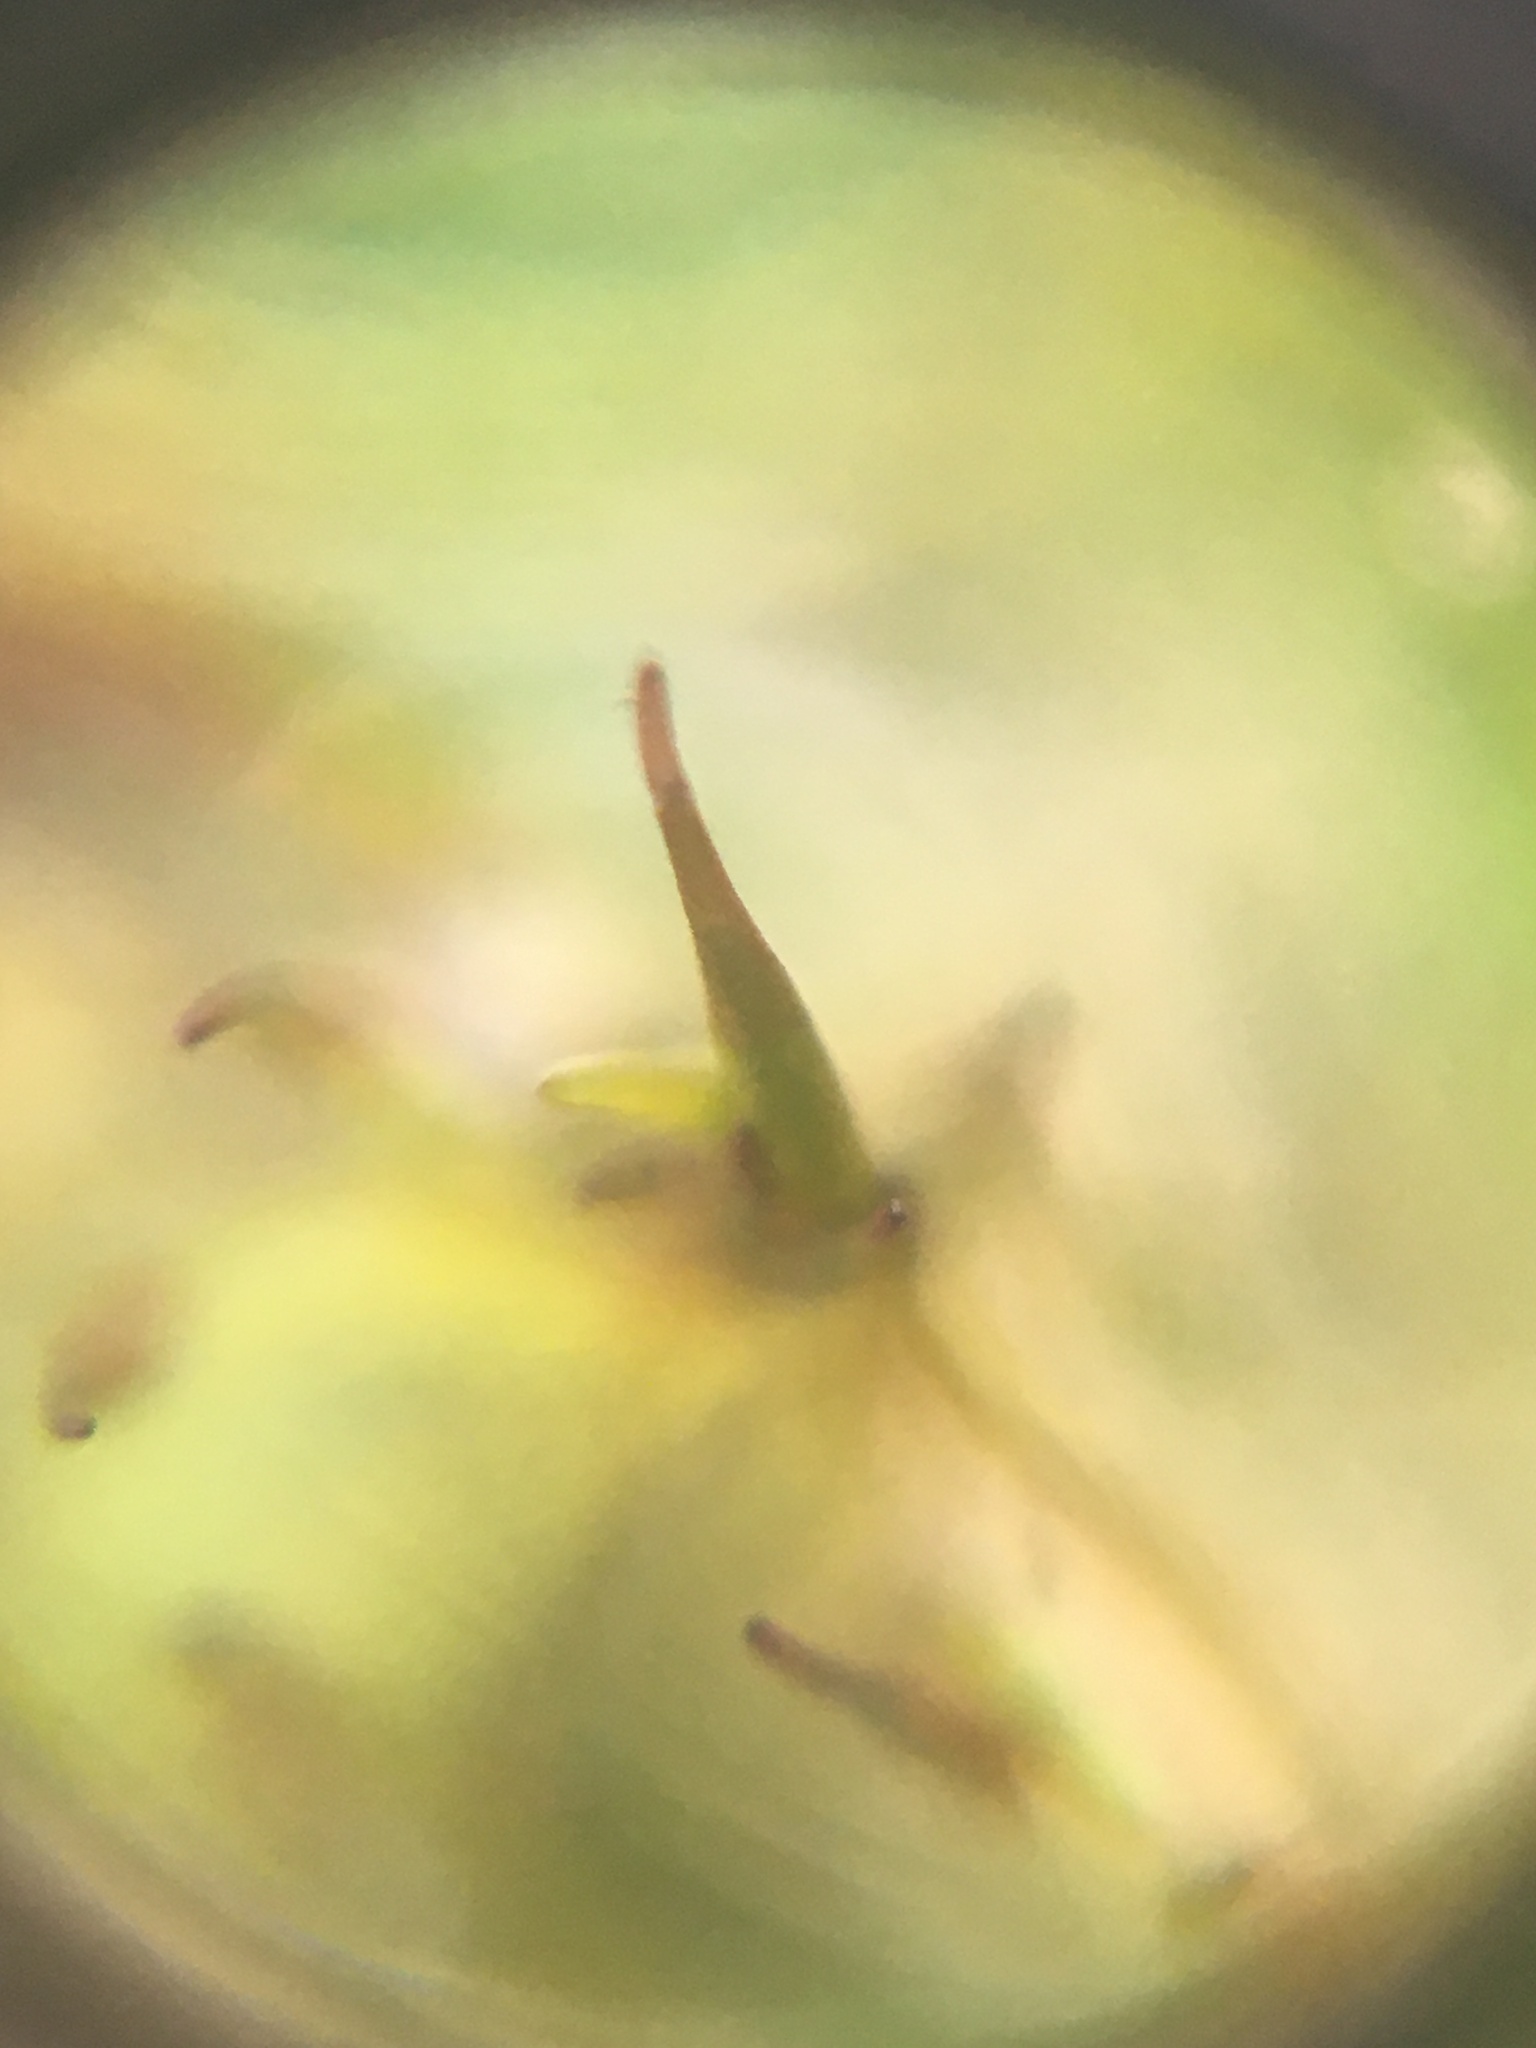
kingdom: Plantae
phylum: Bryophyta
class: Bryopsida
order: Pottiales
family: Pottiaceae
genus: Tortula
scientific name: Tortula muralis
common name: Wall screw-moss
